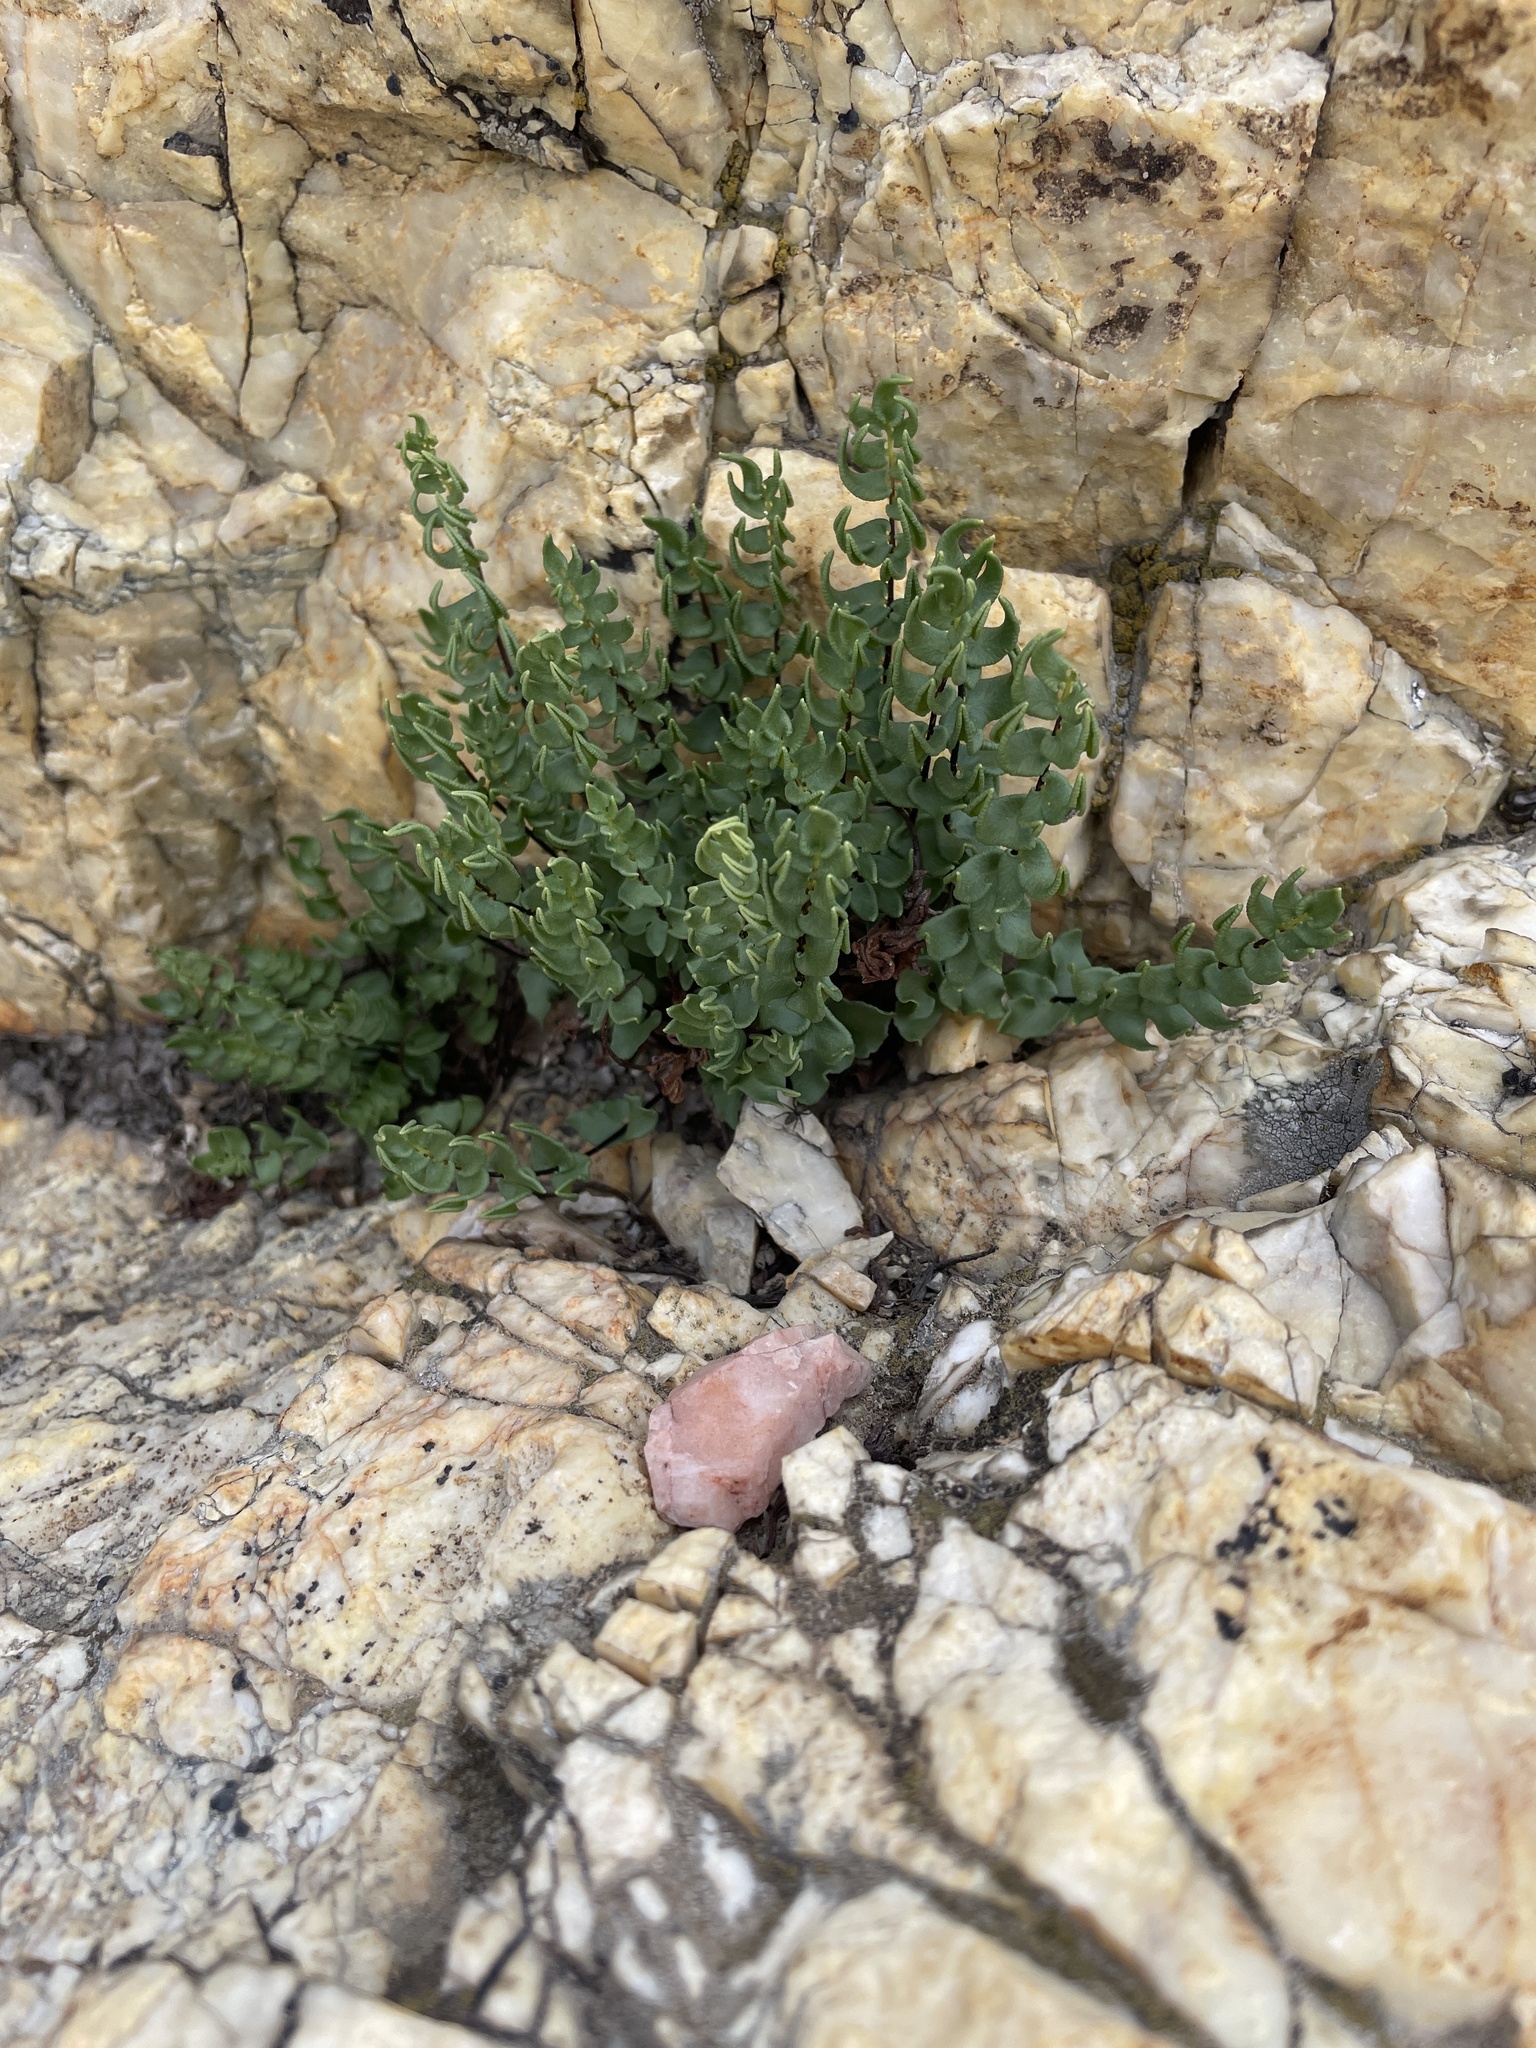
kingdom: Plantae
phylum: Tracheophyta
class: Polypodiopsida
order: Polypodiales
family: Pteridaceae
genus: Pellaea
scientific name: Pellaea breweri
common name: Brewer's cliffbrake
